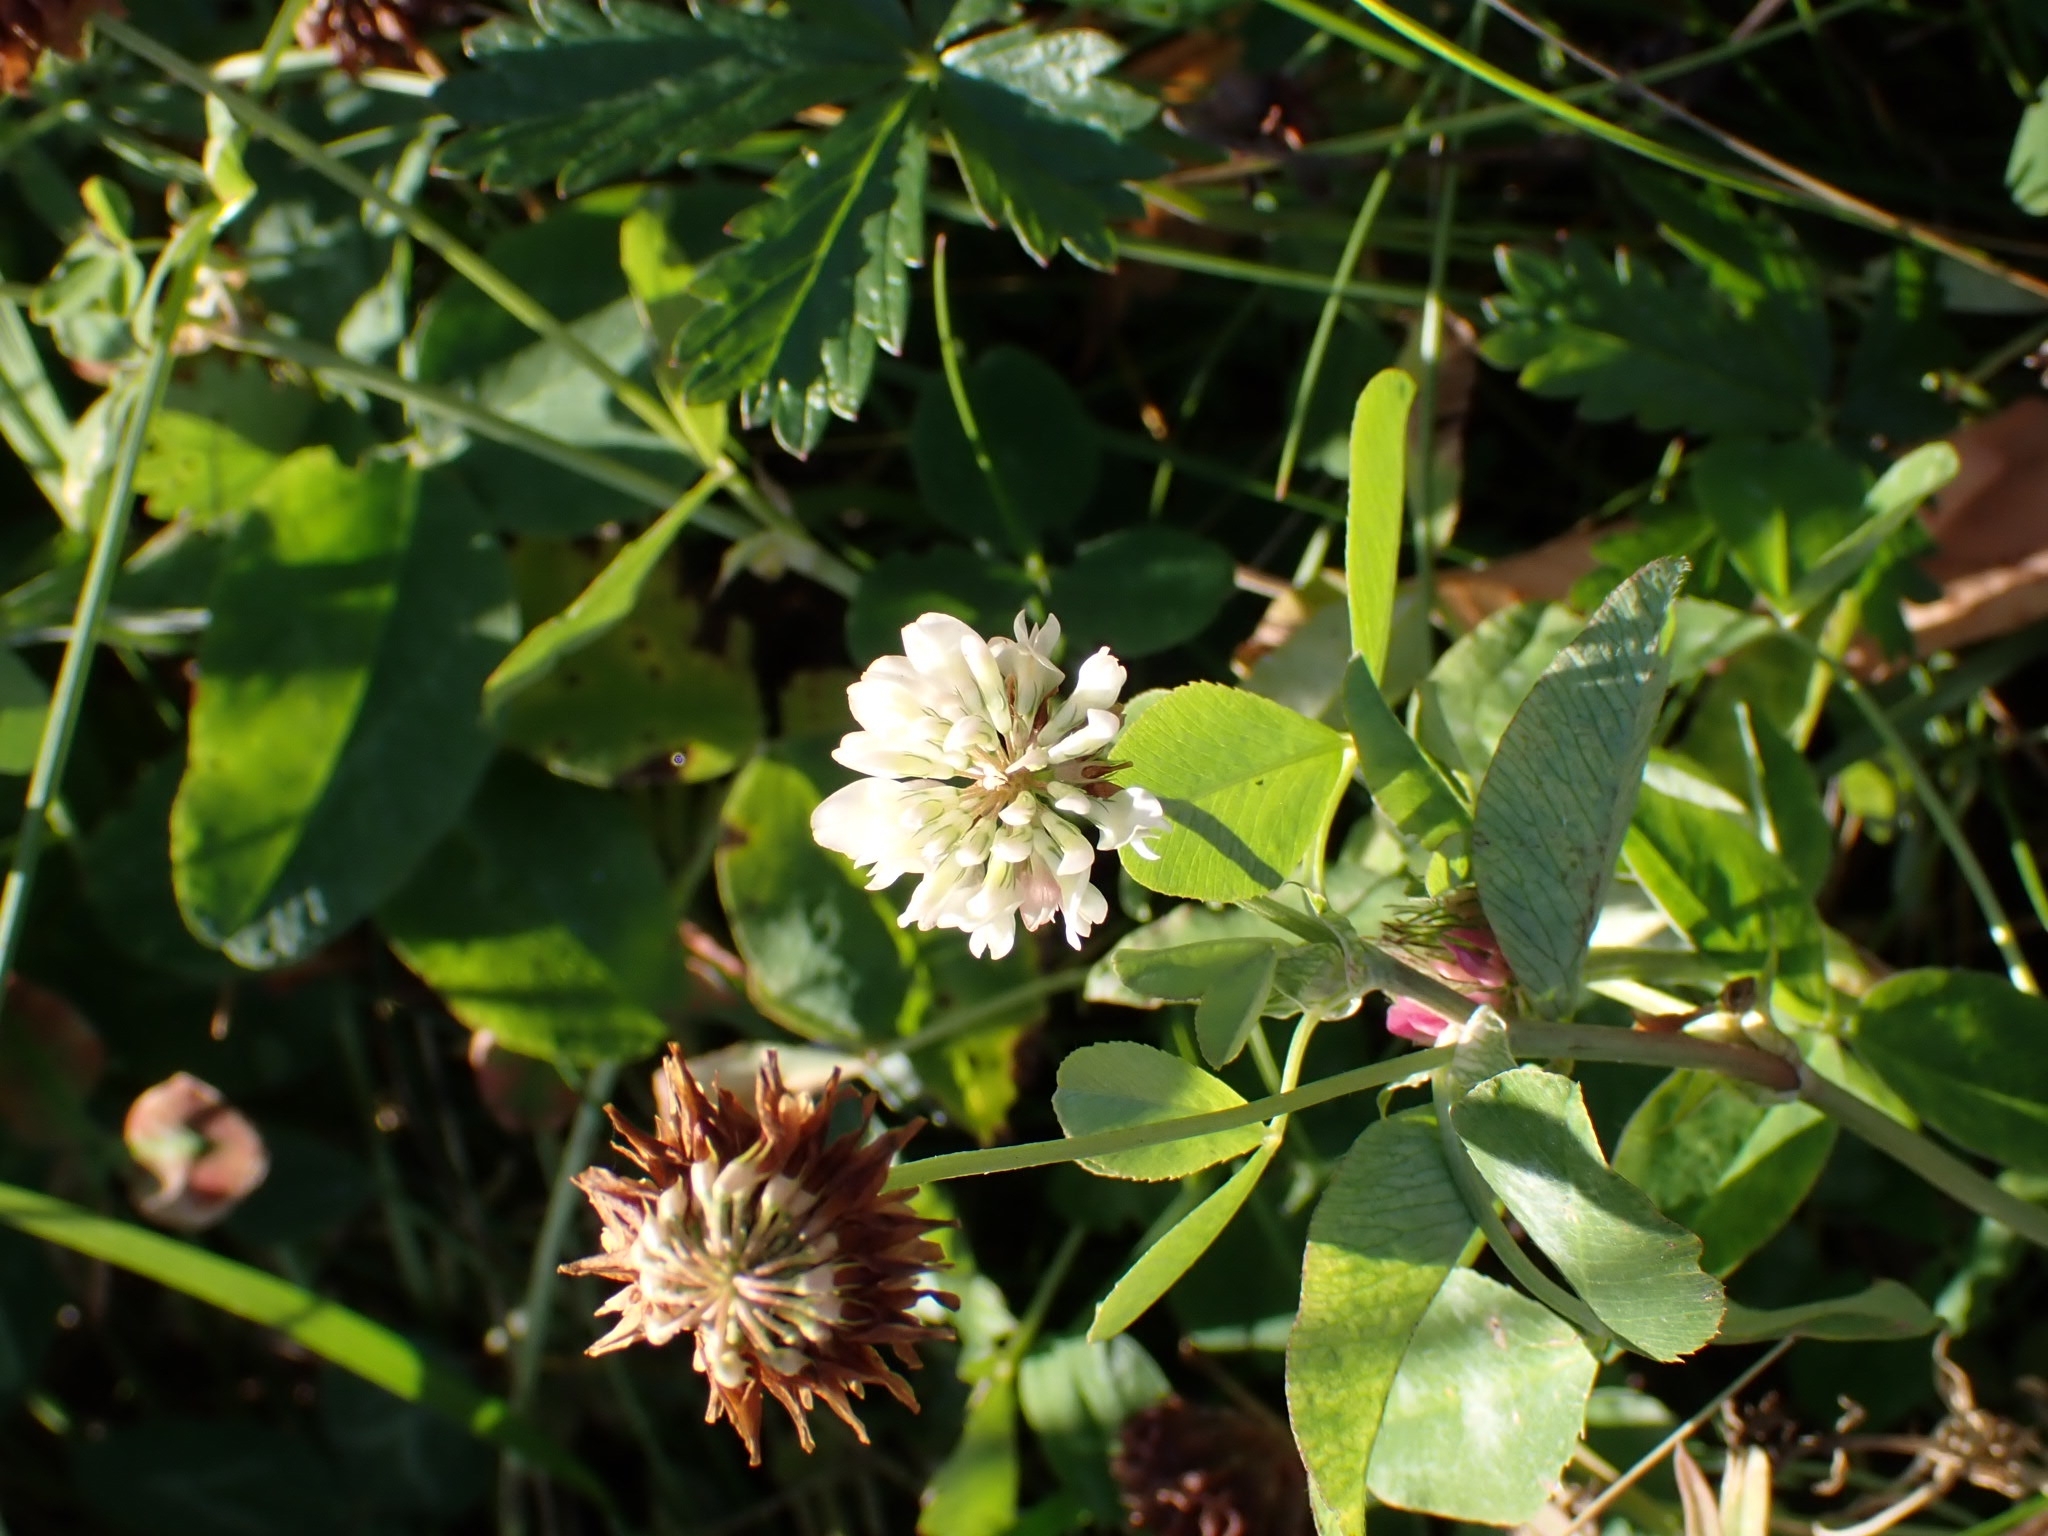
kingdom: Plantae
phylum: Tracheophyta
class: Magnoliopsida
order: Fabales
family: Fabaceae
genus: Trifolium
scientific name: Trifolium repens
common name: White clover
